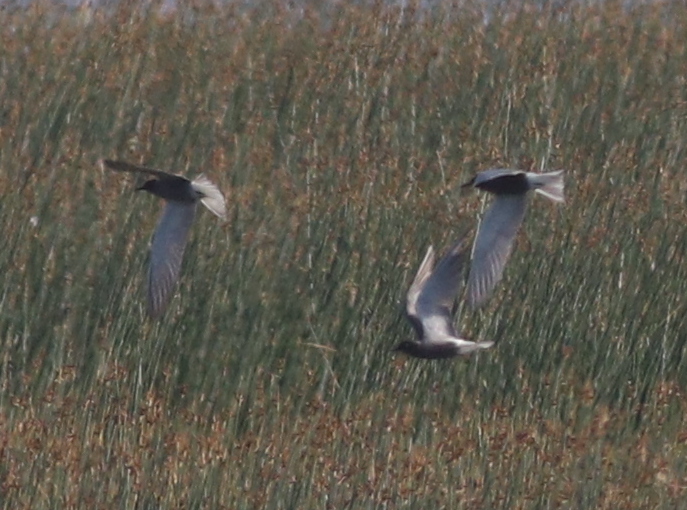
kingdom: Animalia
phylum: Chordata
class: Aves
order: Charadriiformes
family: Laridae
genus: Chlidonias
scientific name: Chlidonias niger
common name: Black tern
